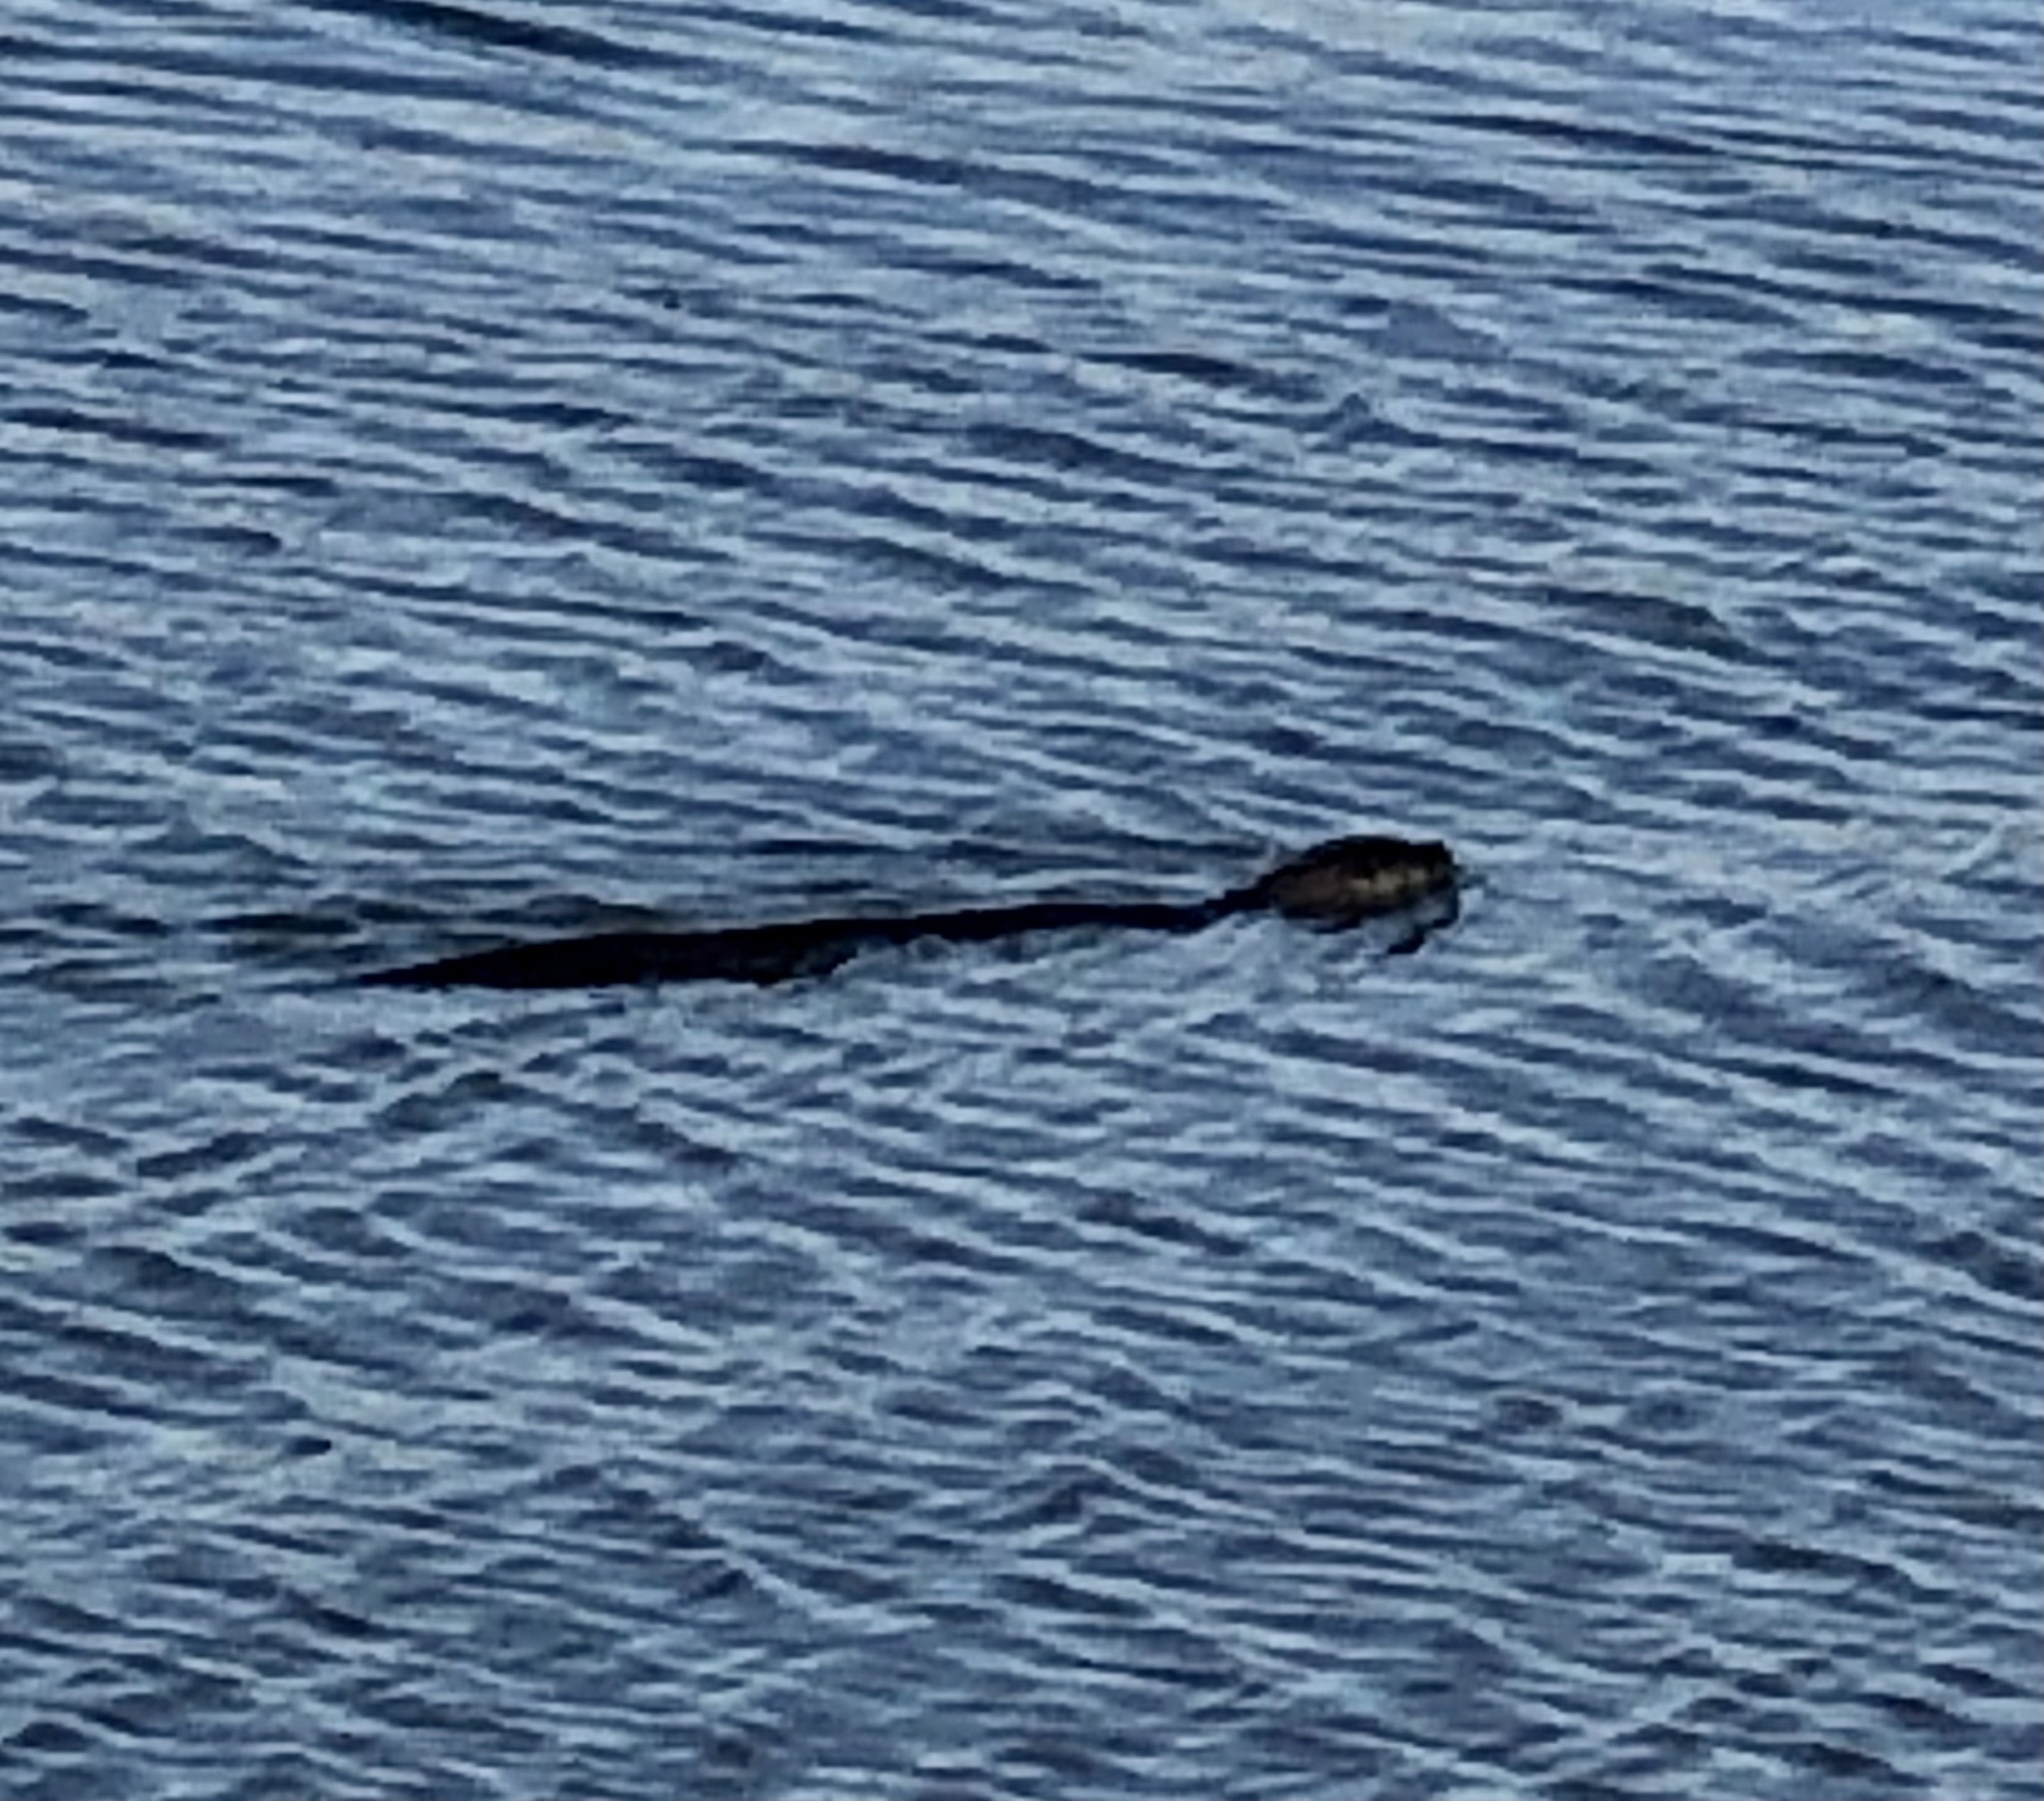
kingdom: Animalia
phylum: Chordata
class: Mammalia
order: Carnivora
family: Mustelidae
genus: Lontra
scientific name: Lontra canadensis
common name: North american river otter
